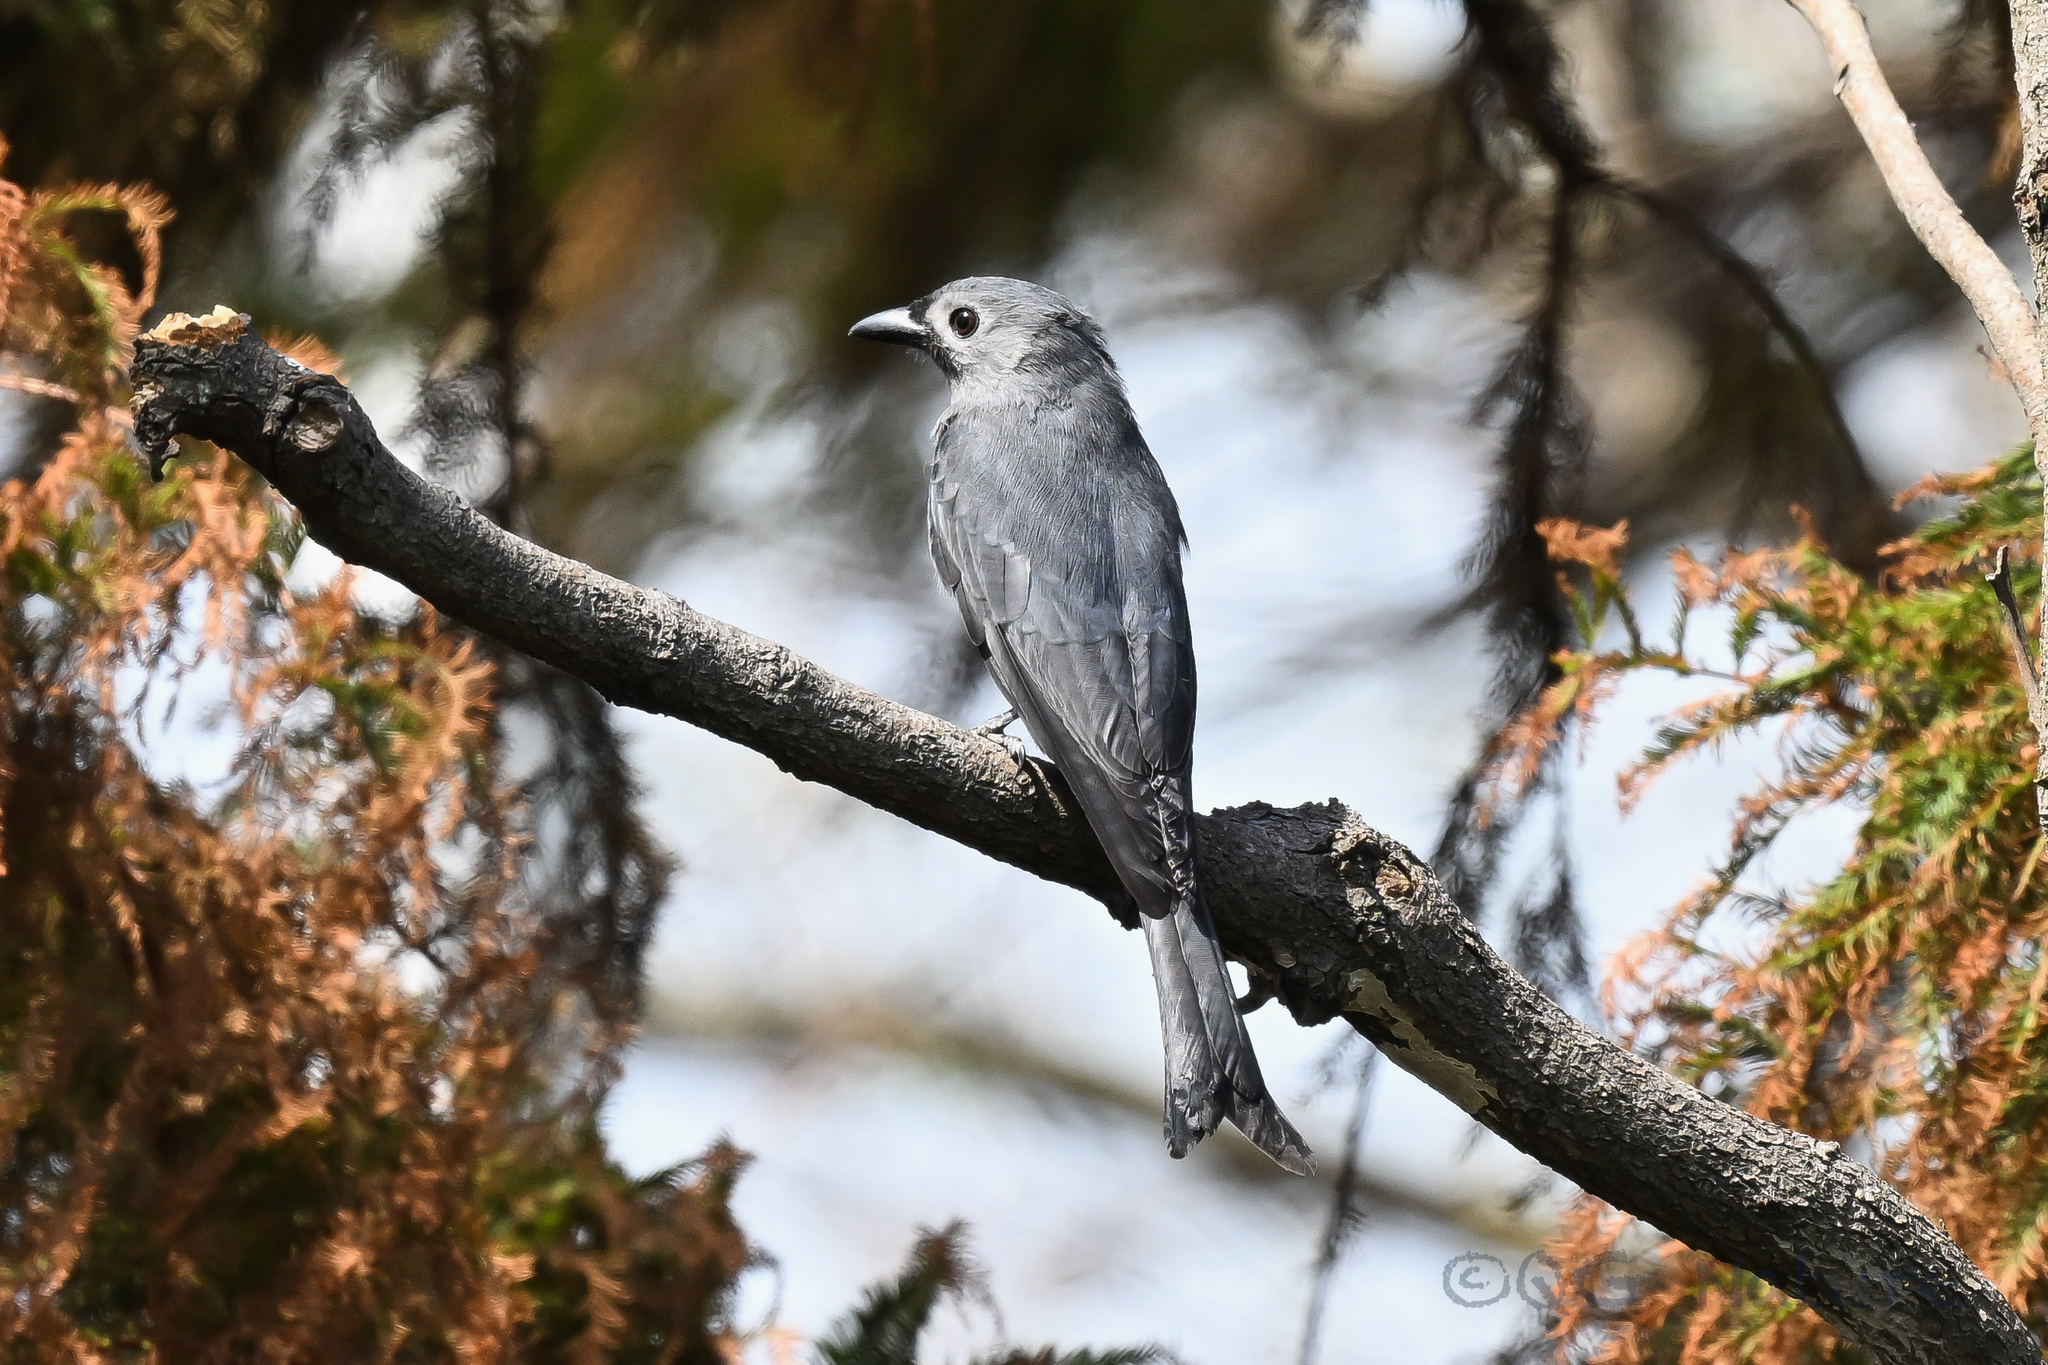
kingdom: Animalia
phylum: Chordata
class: Aves
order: Passeriformes
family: Dicruridae
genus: Dicrurus
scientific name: Dicrurus leucophaeus
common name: Ashy drongo
